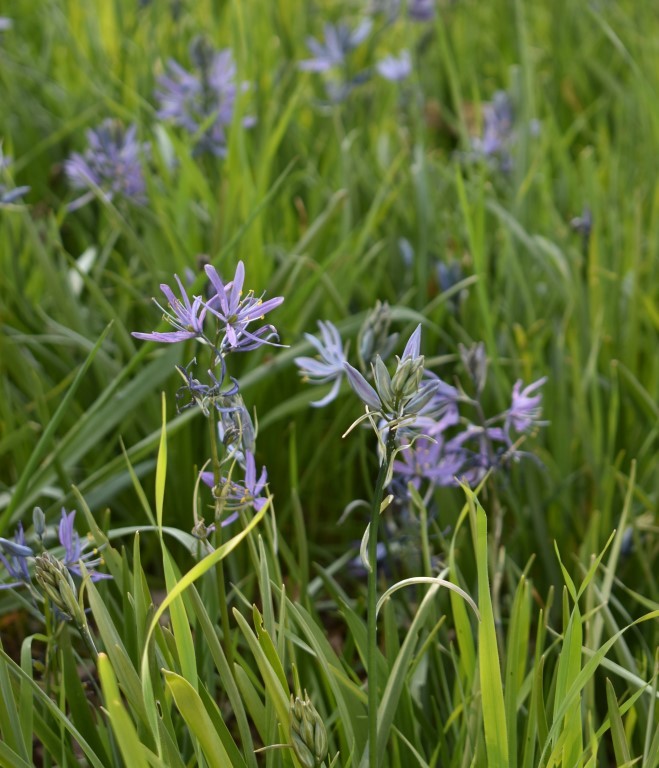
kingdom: Plantae
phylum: Tracheophyta
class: Liliopsida
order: Asparagales
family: Asparagaceae
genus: Camassia
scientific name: Camassia quamash
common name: Common camas
